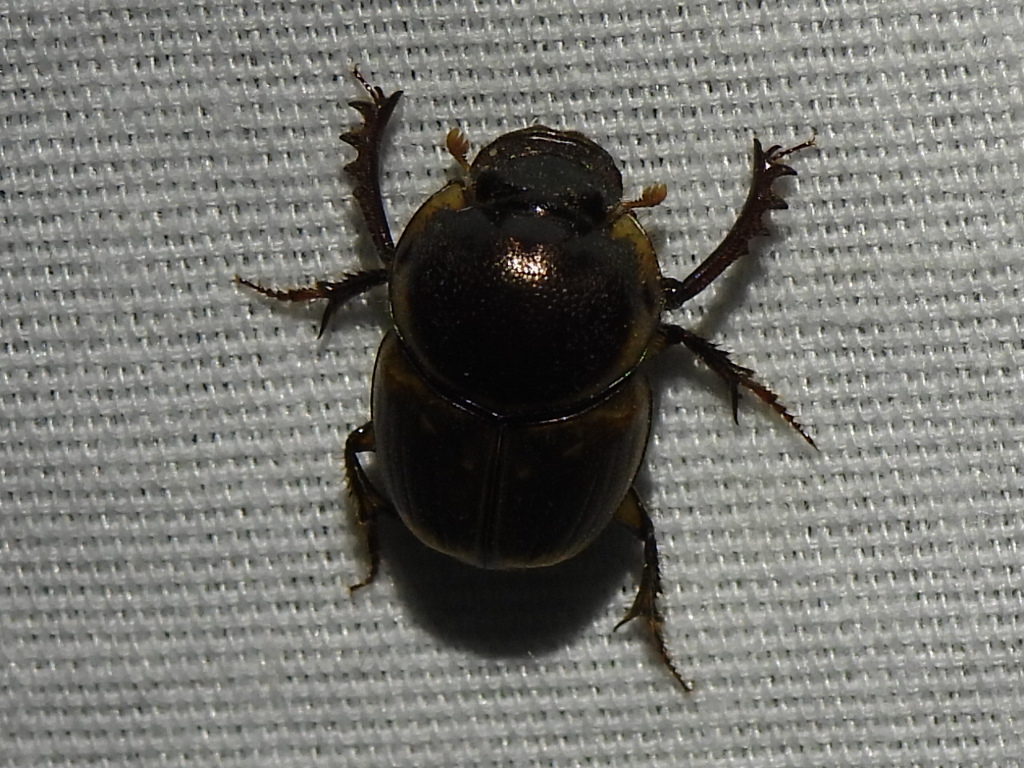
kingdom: Animalia
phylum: Arthropoda
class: Insecta
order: Coleoptera
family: Scarabaeidae
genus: Digitonthophagus
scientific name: Digitonthophagus gazella
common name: Brown dung beetle
